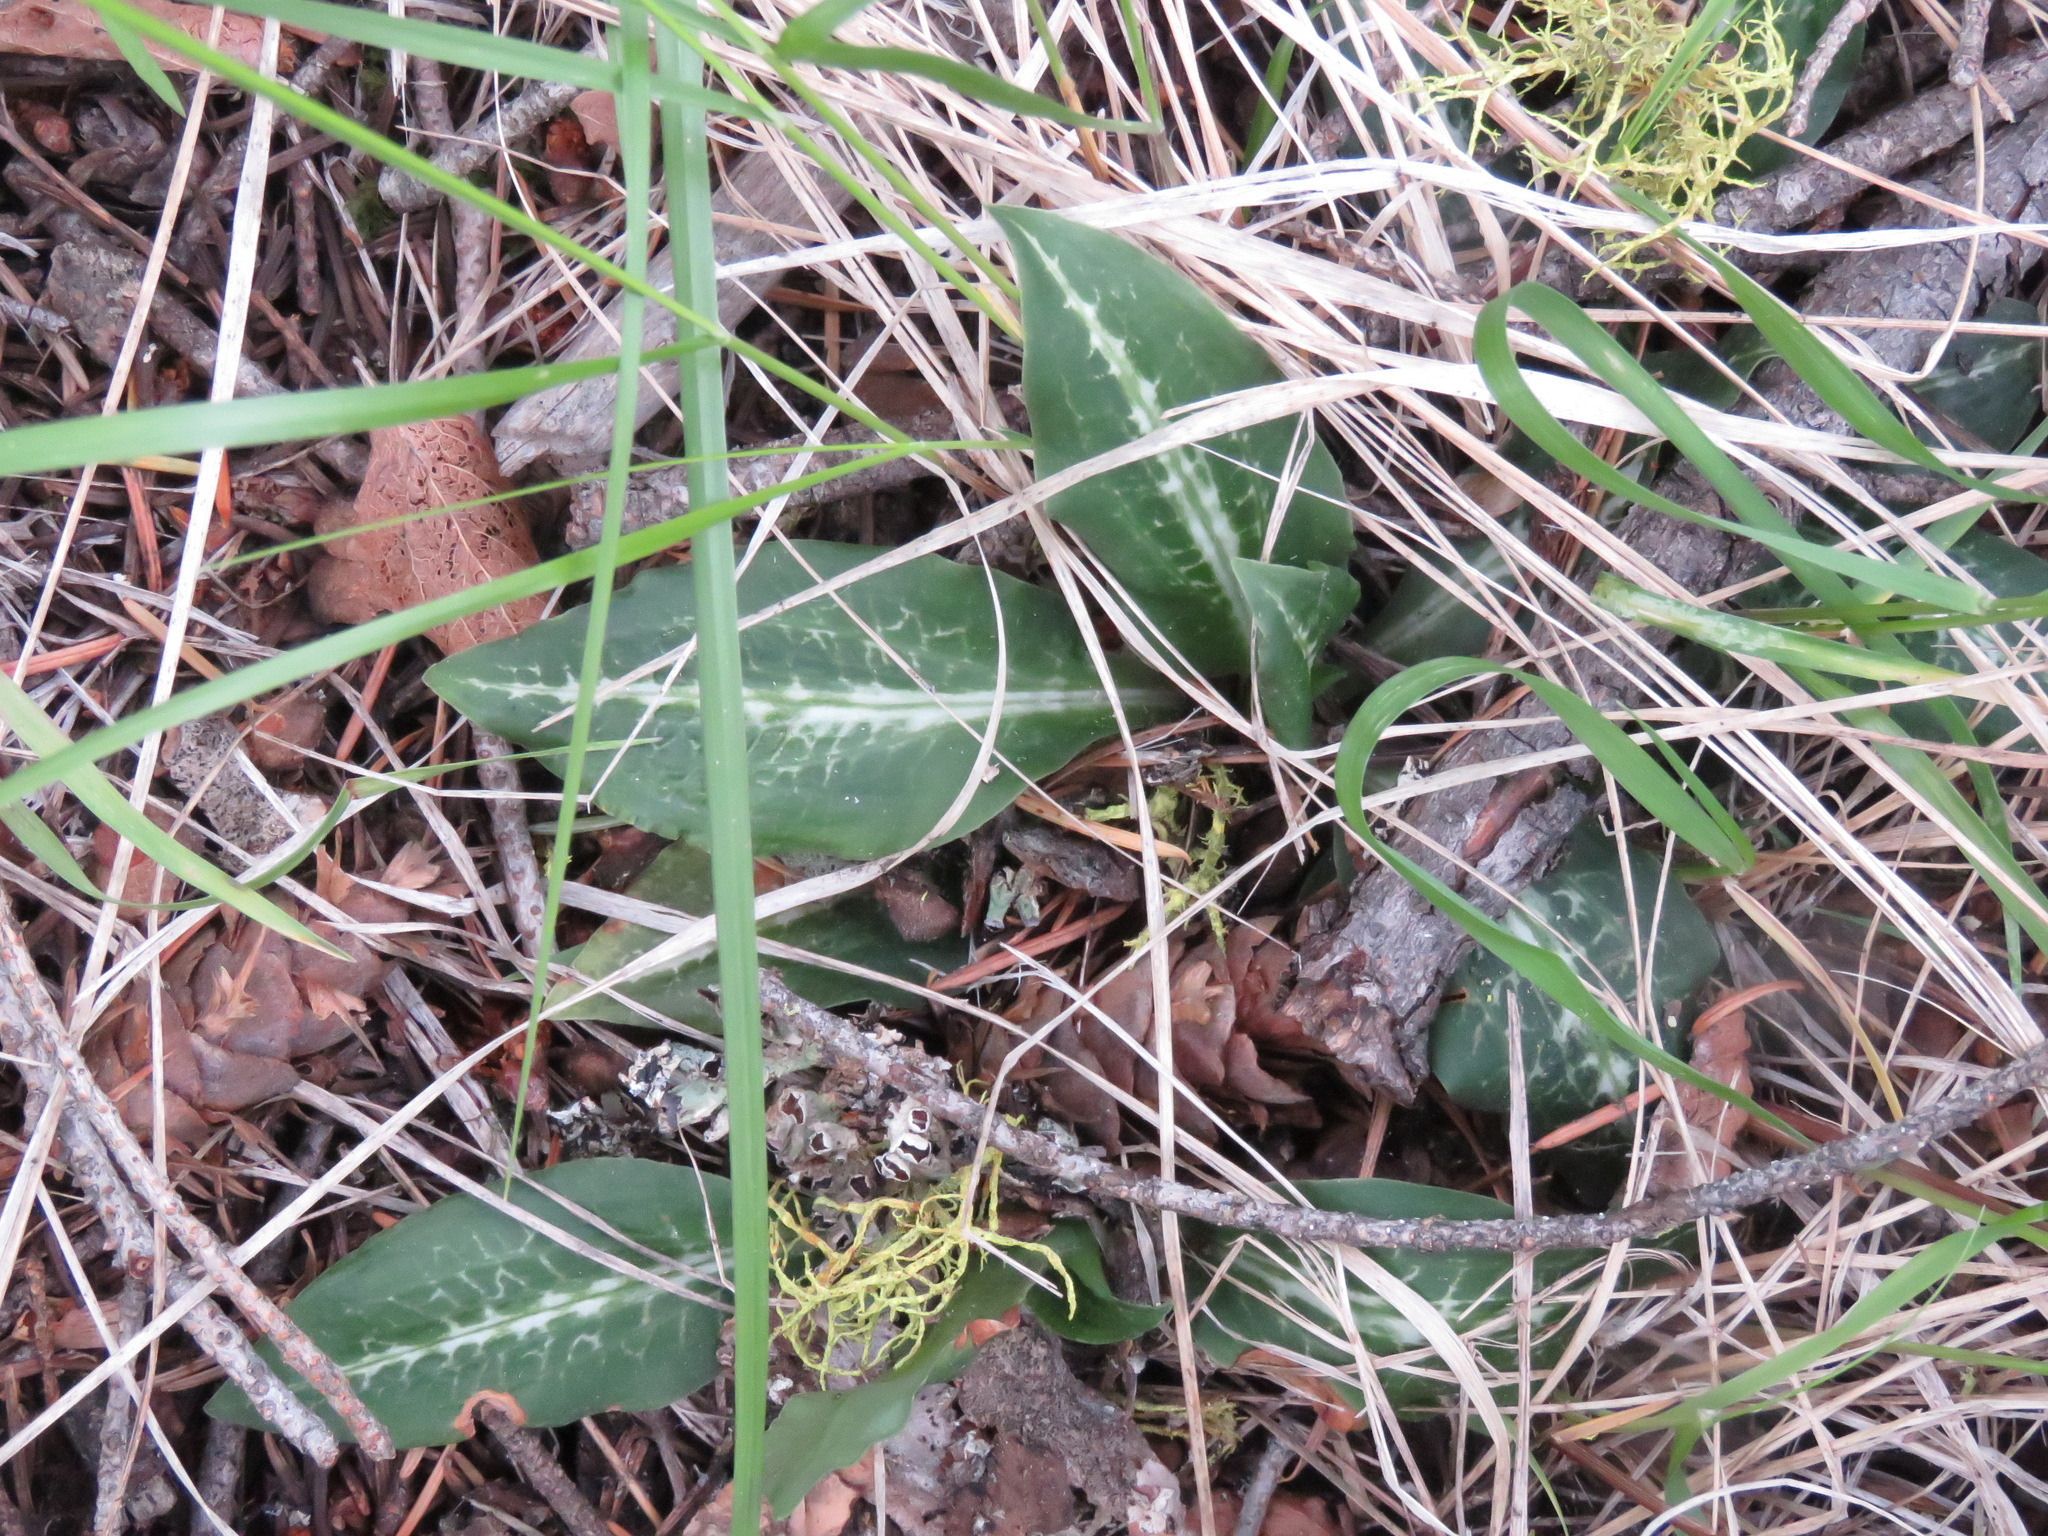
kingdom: Plantae
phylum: Tracheophyta
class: Liliopsida
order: Asparagales
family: Orchidaceae
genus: Goodyera
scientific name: Goodyera oblongifolia
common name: Giant rattlesnake-plantain
